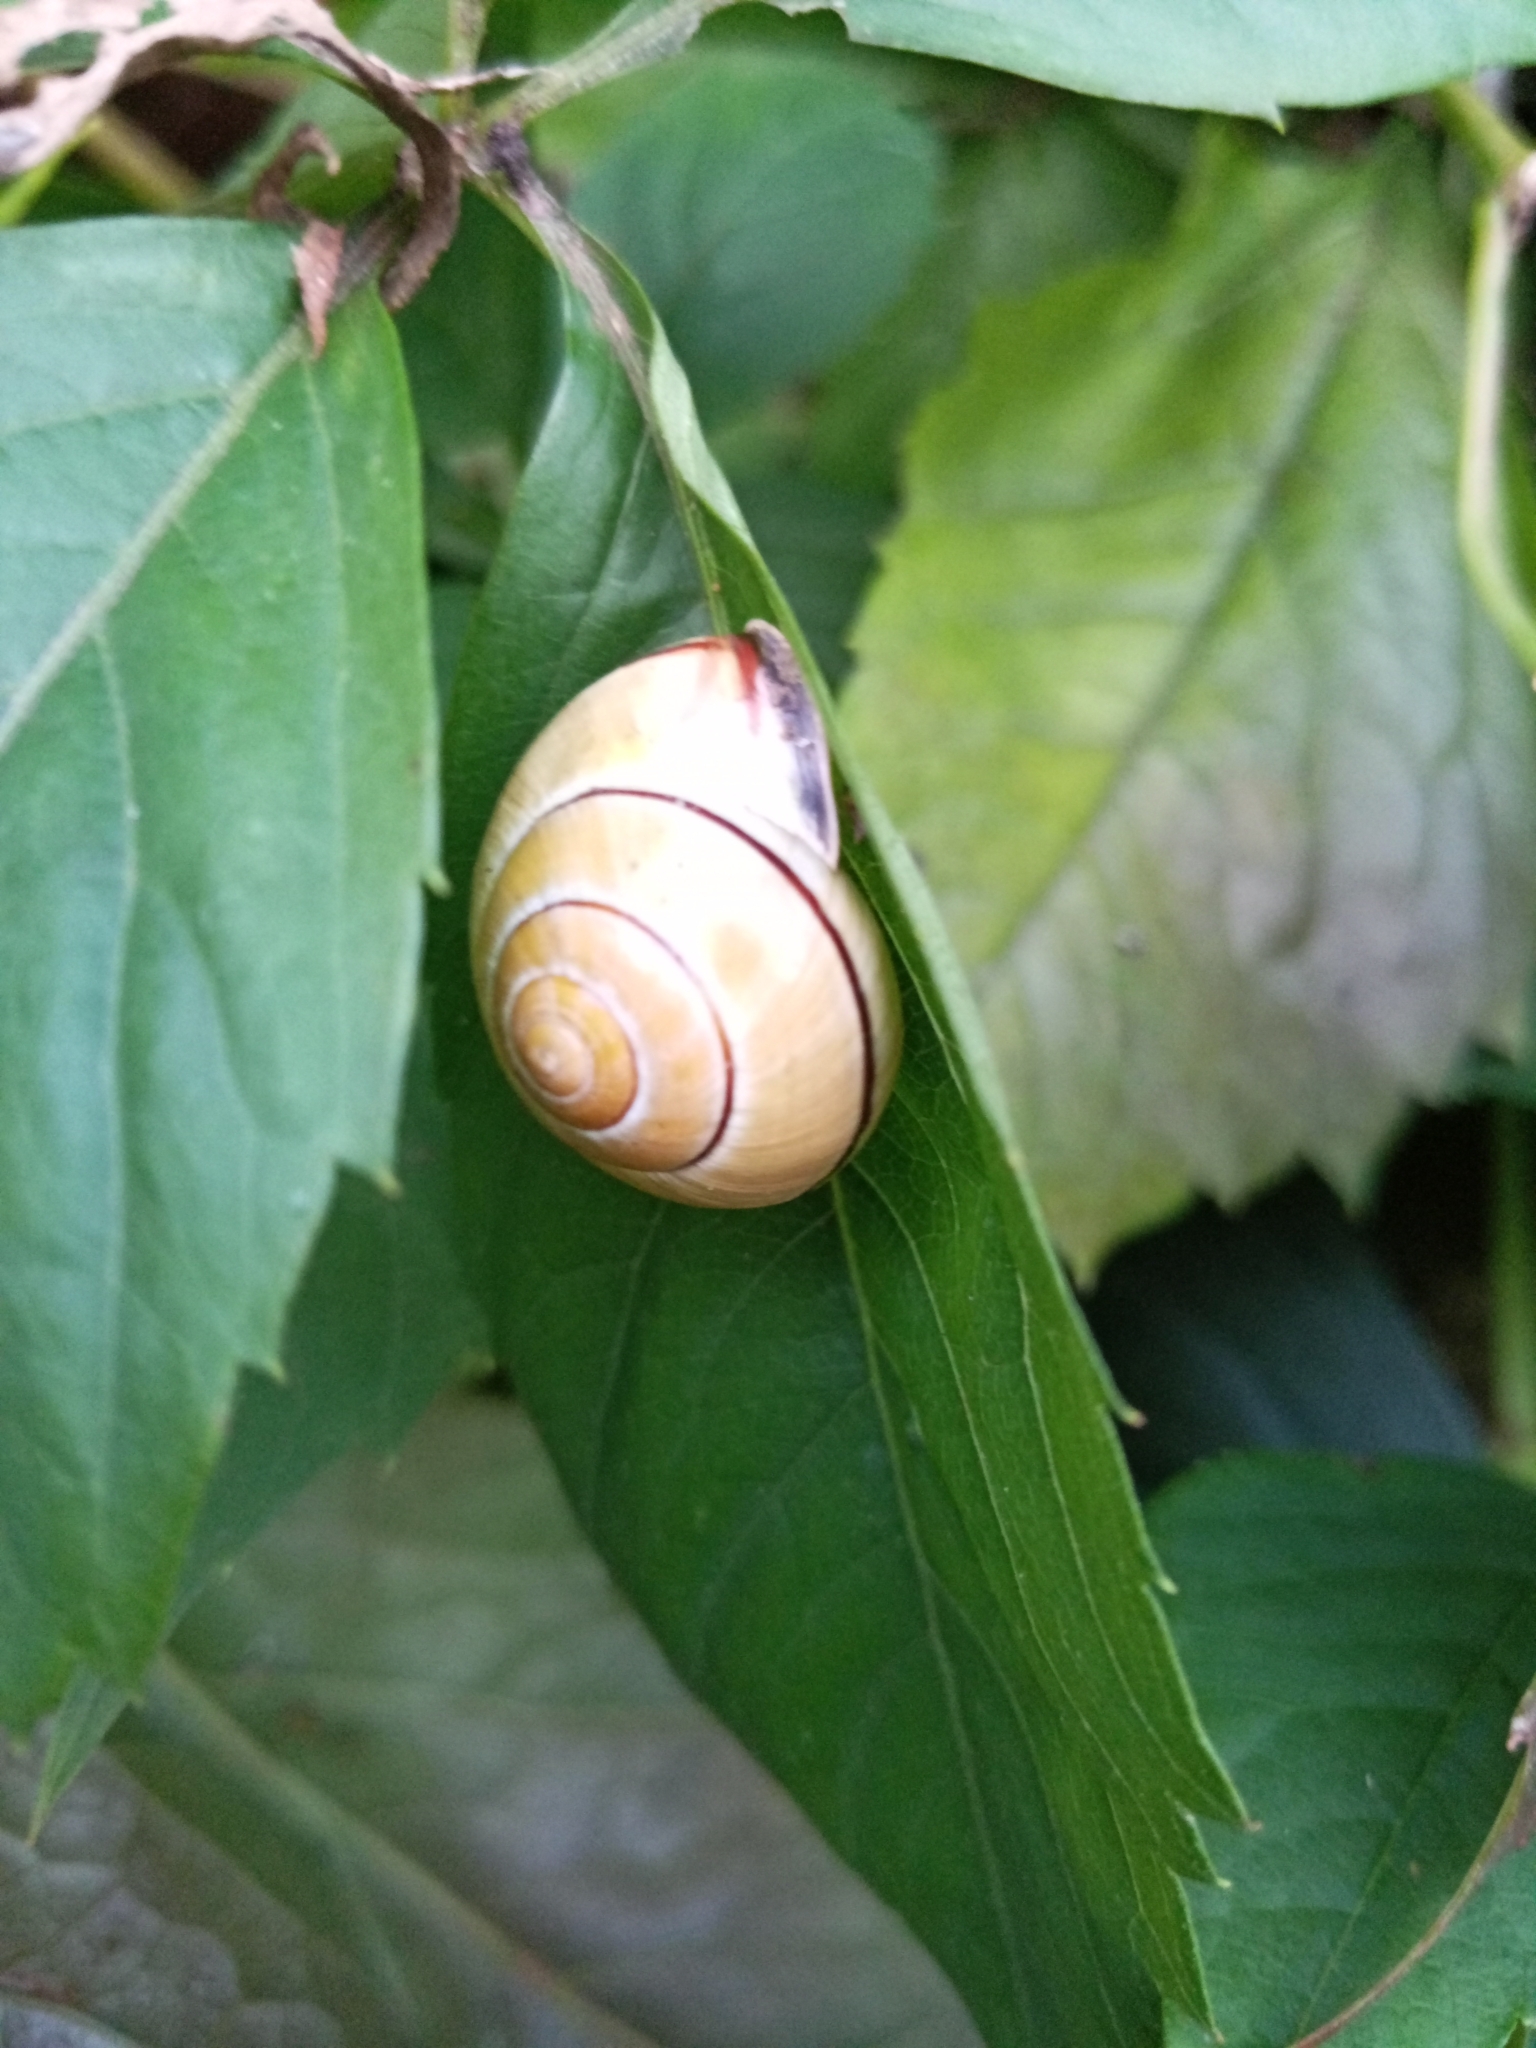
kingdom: Animalia
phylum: Mollusca
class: Gastropoda
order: Stylommatophora
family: Helicidae
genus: Cepaea
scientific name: Cepaea nemoralis
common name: Grovesnail
